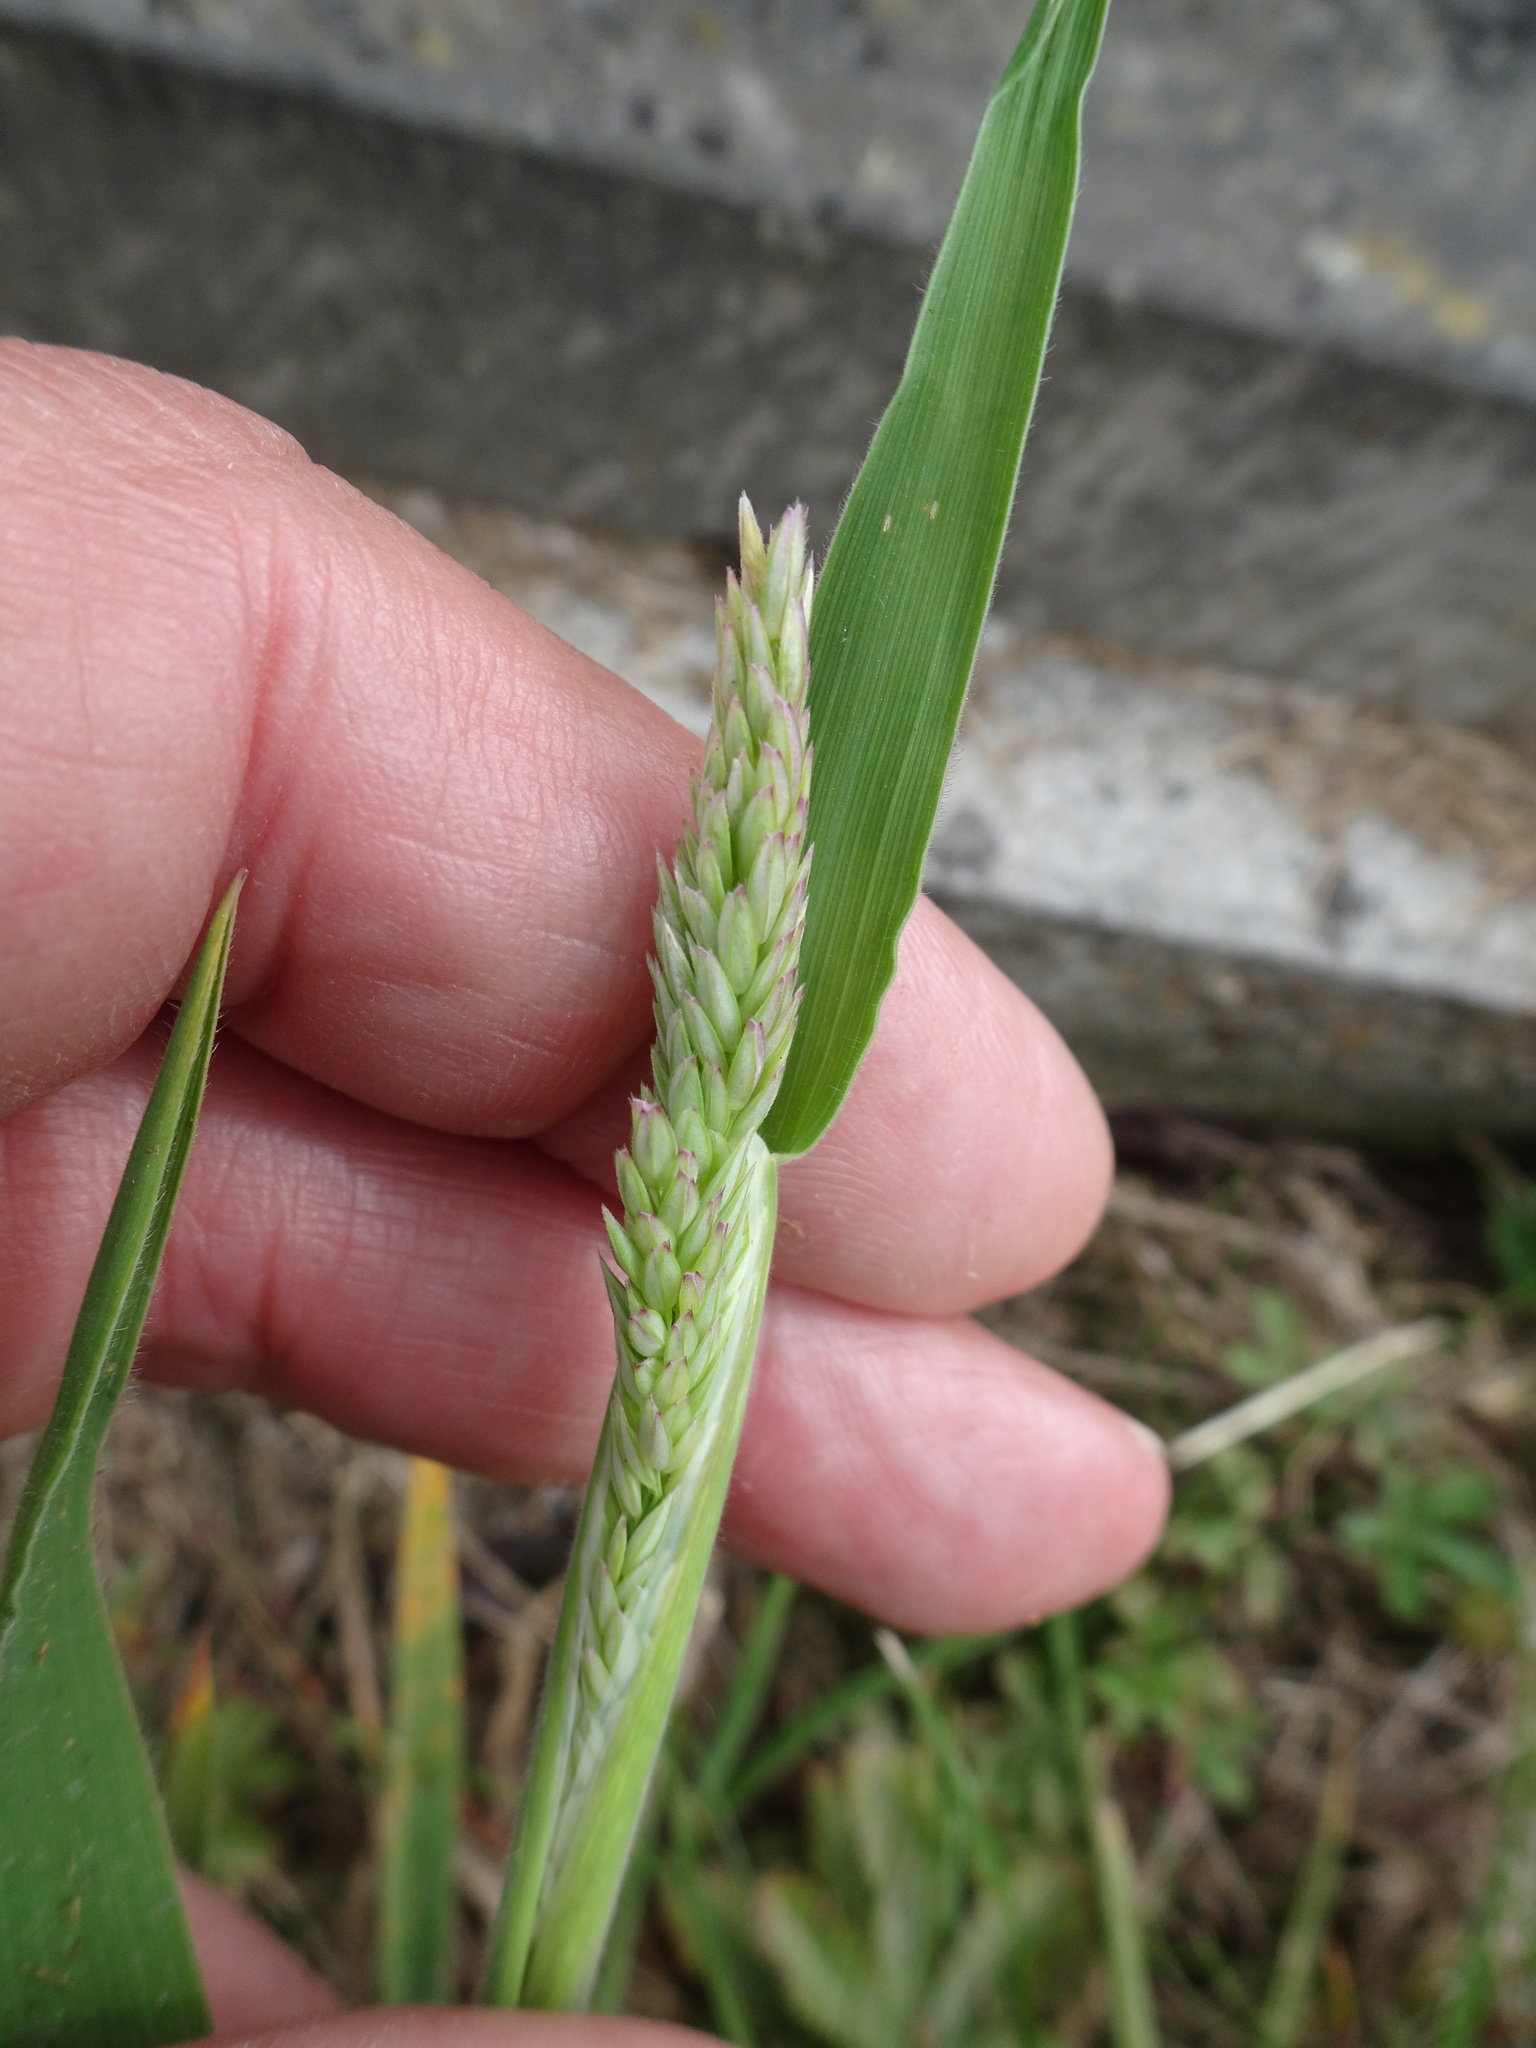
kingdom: Plantae
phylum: Tracheophyta
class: Liliopsida
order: Poales
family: Poaceae
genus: Holcus
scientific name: Holcus lanatus
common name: Yorkshire-fog
